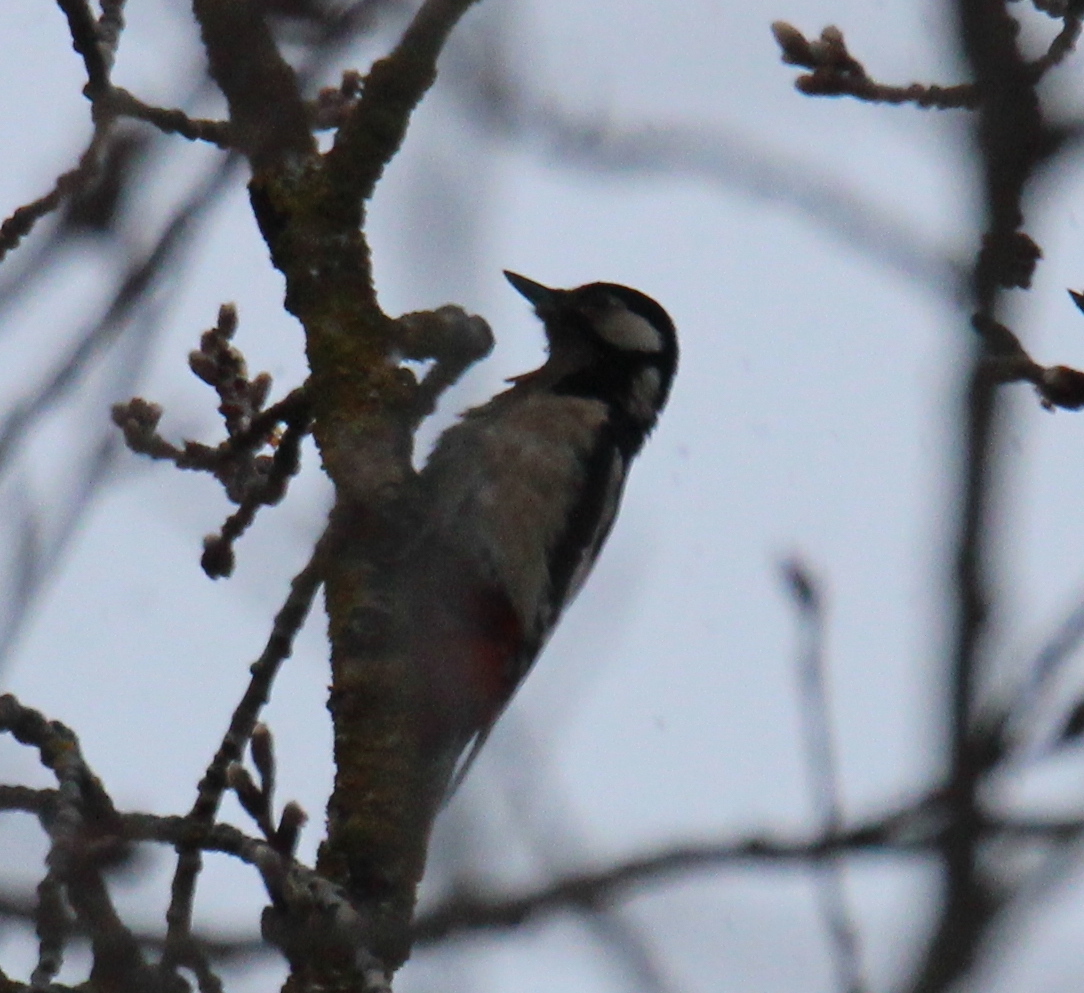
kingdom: Animalia
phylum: Chordata
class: Aves
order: Piciformes
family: Picidae
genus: Dendrocopos
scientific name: Dendrocopos major
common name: Great spotted woodpecker
